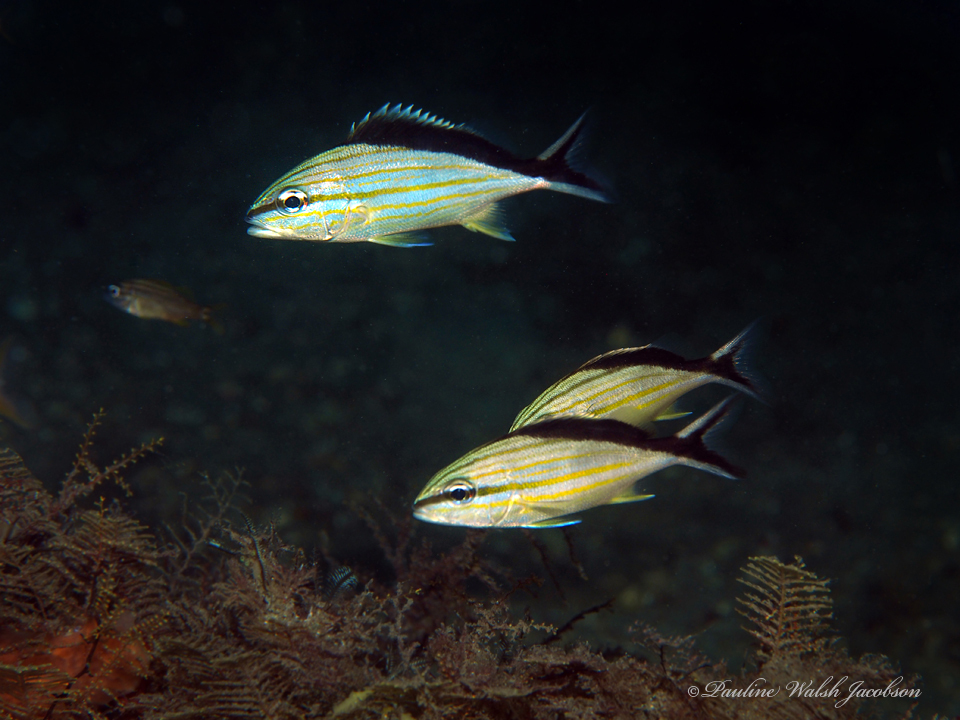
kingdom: Animalia
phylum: Chordata
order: Perciformes
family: Haemulidae
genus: Haemulon
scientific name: Haemulon melanurum
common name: Cottonwick
